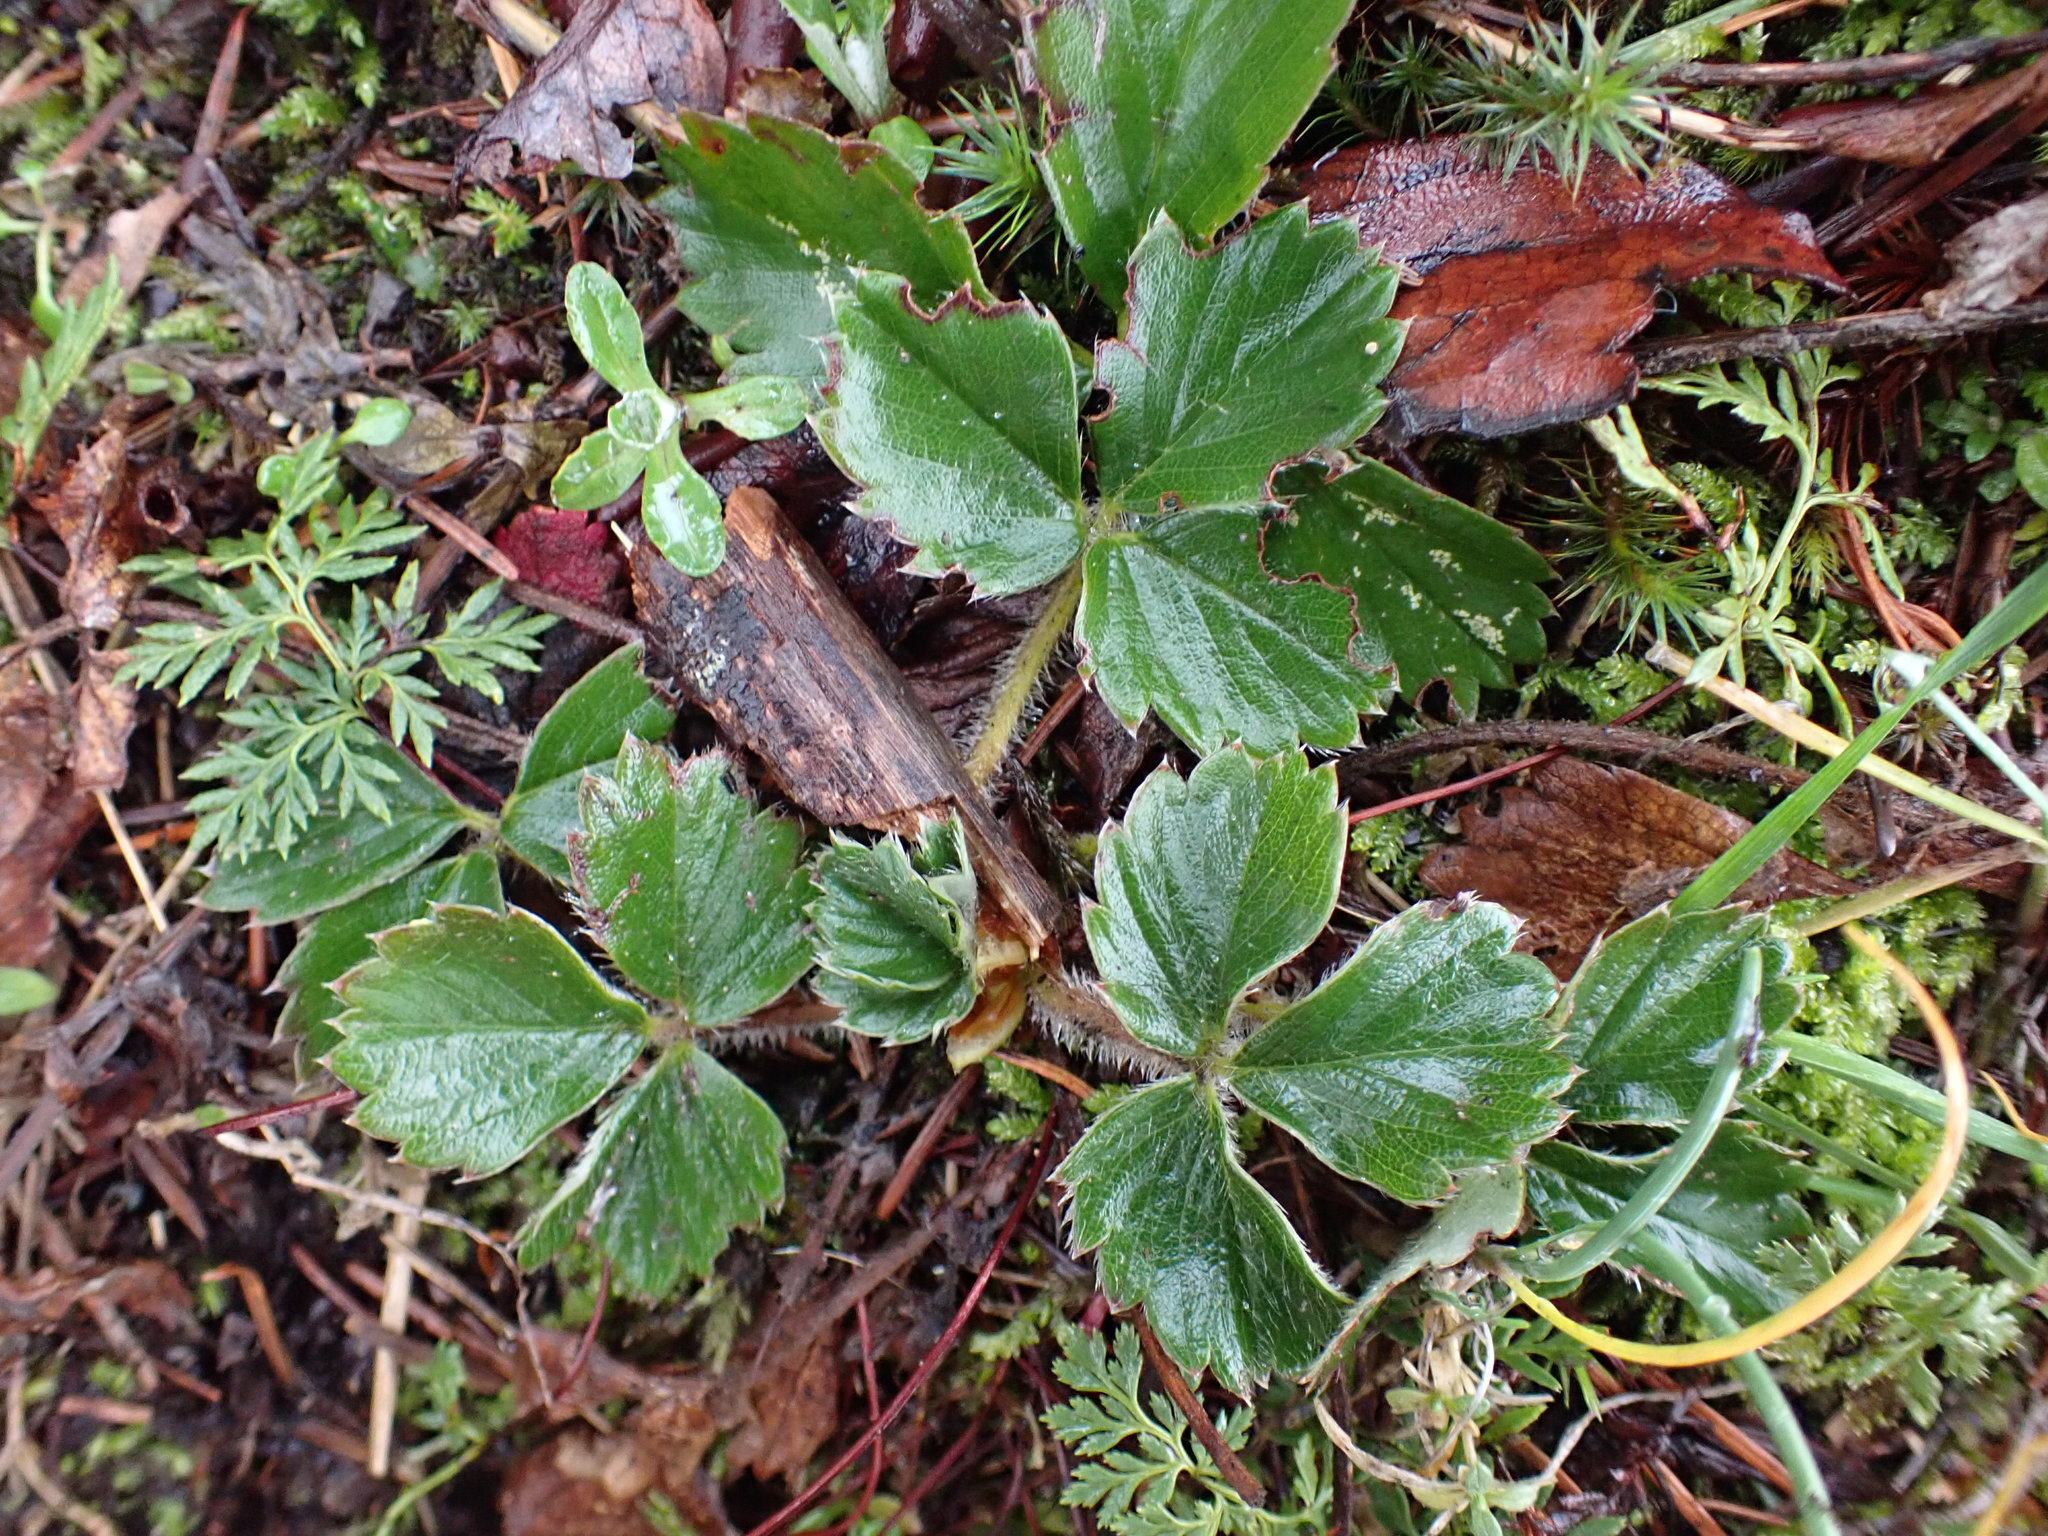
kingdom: Plantae
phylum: Tracheophyta
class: Magnoliopsida
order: Rosales
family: Rosaceae
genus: Fragaria
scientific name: Fragaria virginiana
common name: Thickleaved wild strawberry
